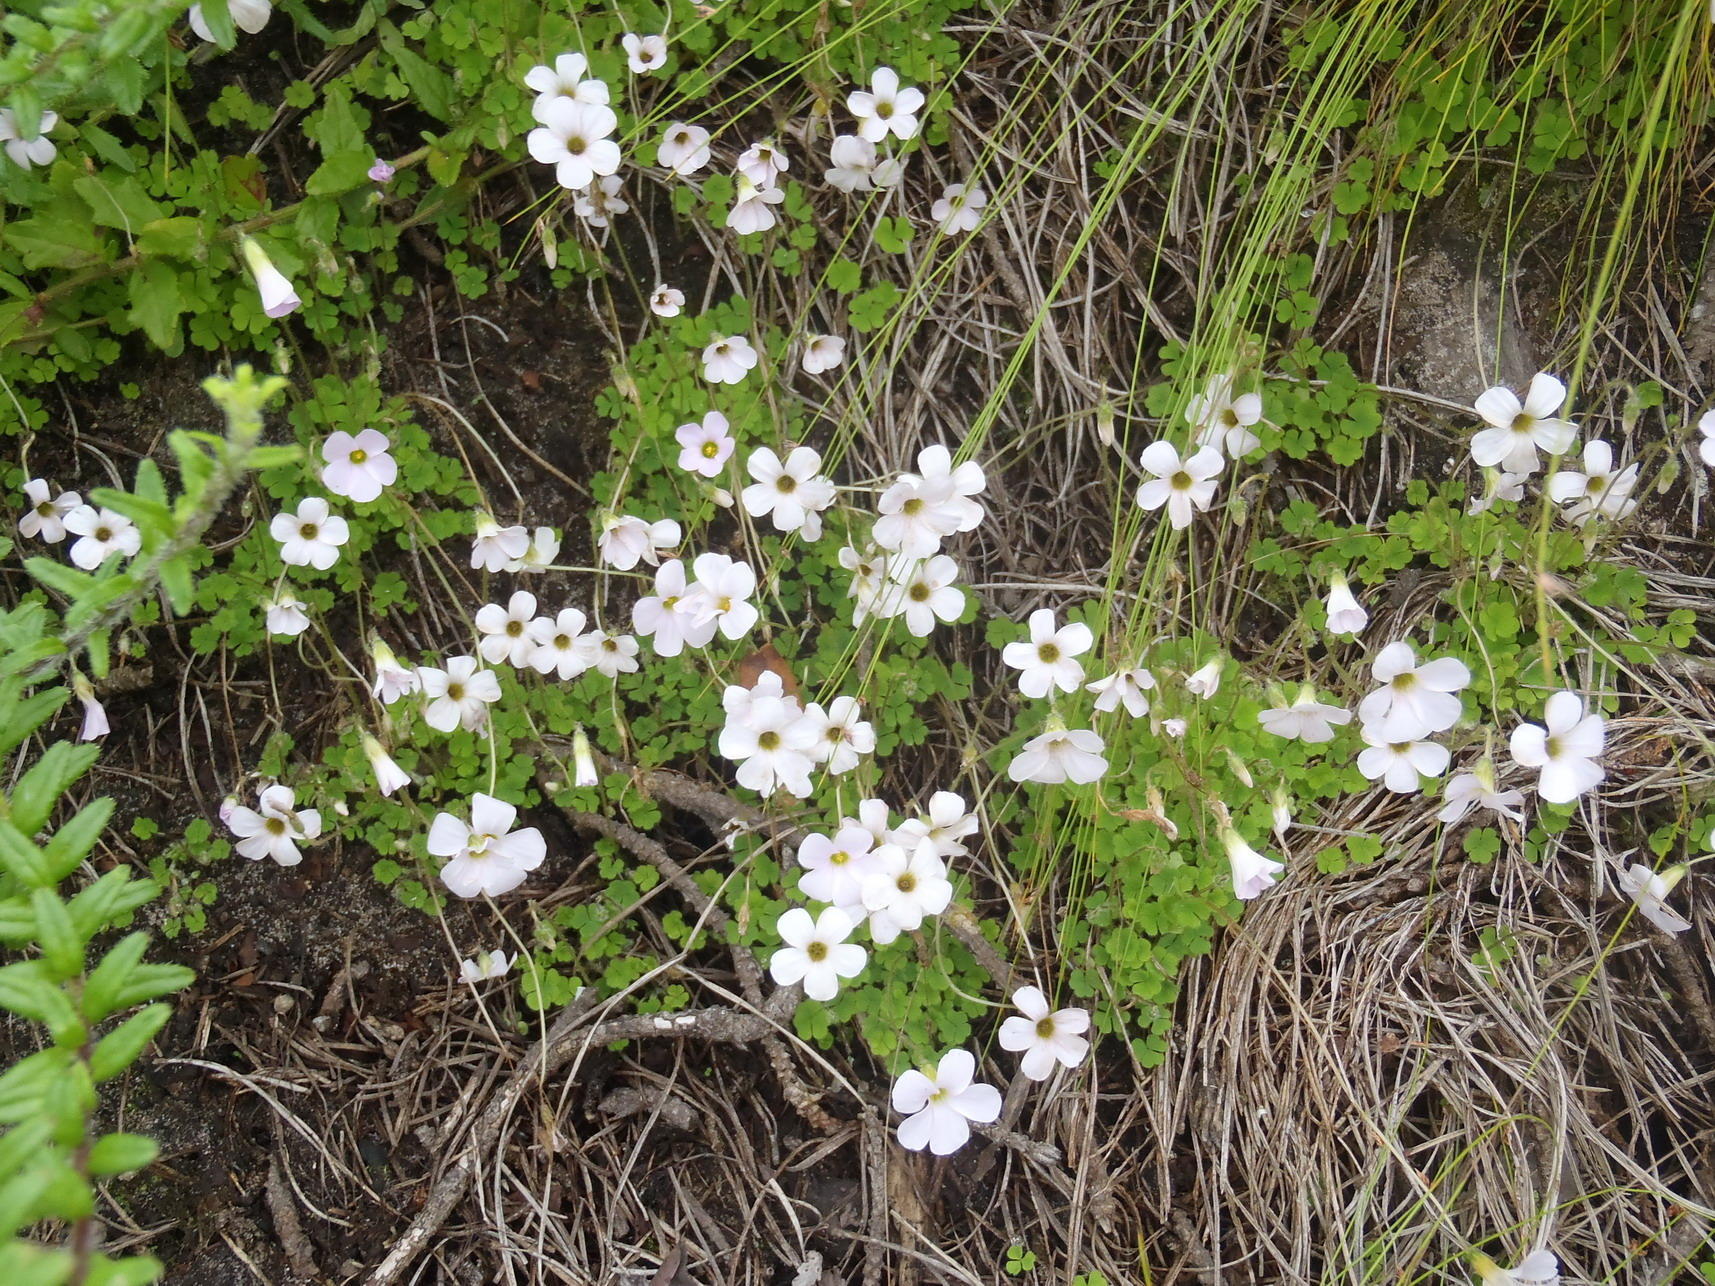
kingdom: Plantae
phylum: Tracheophyta
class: Magnoliopsida
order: Oxalidales
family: Oxalidaceae
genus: Oxalis
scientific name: Oxalis imbricata
